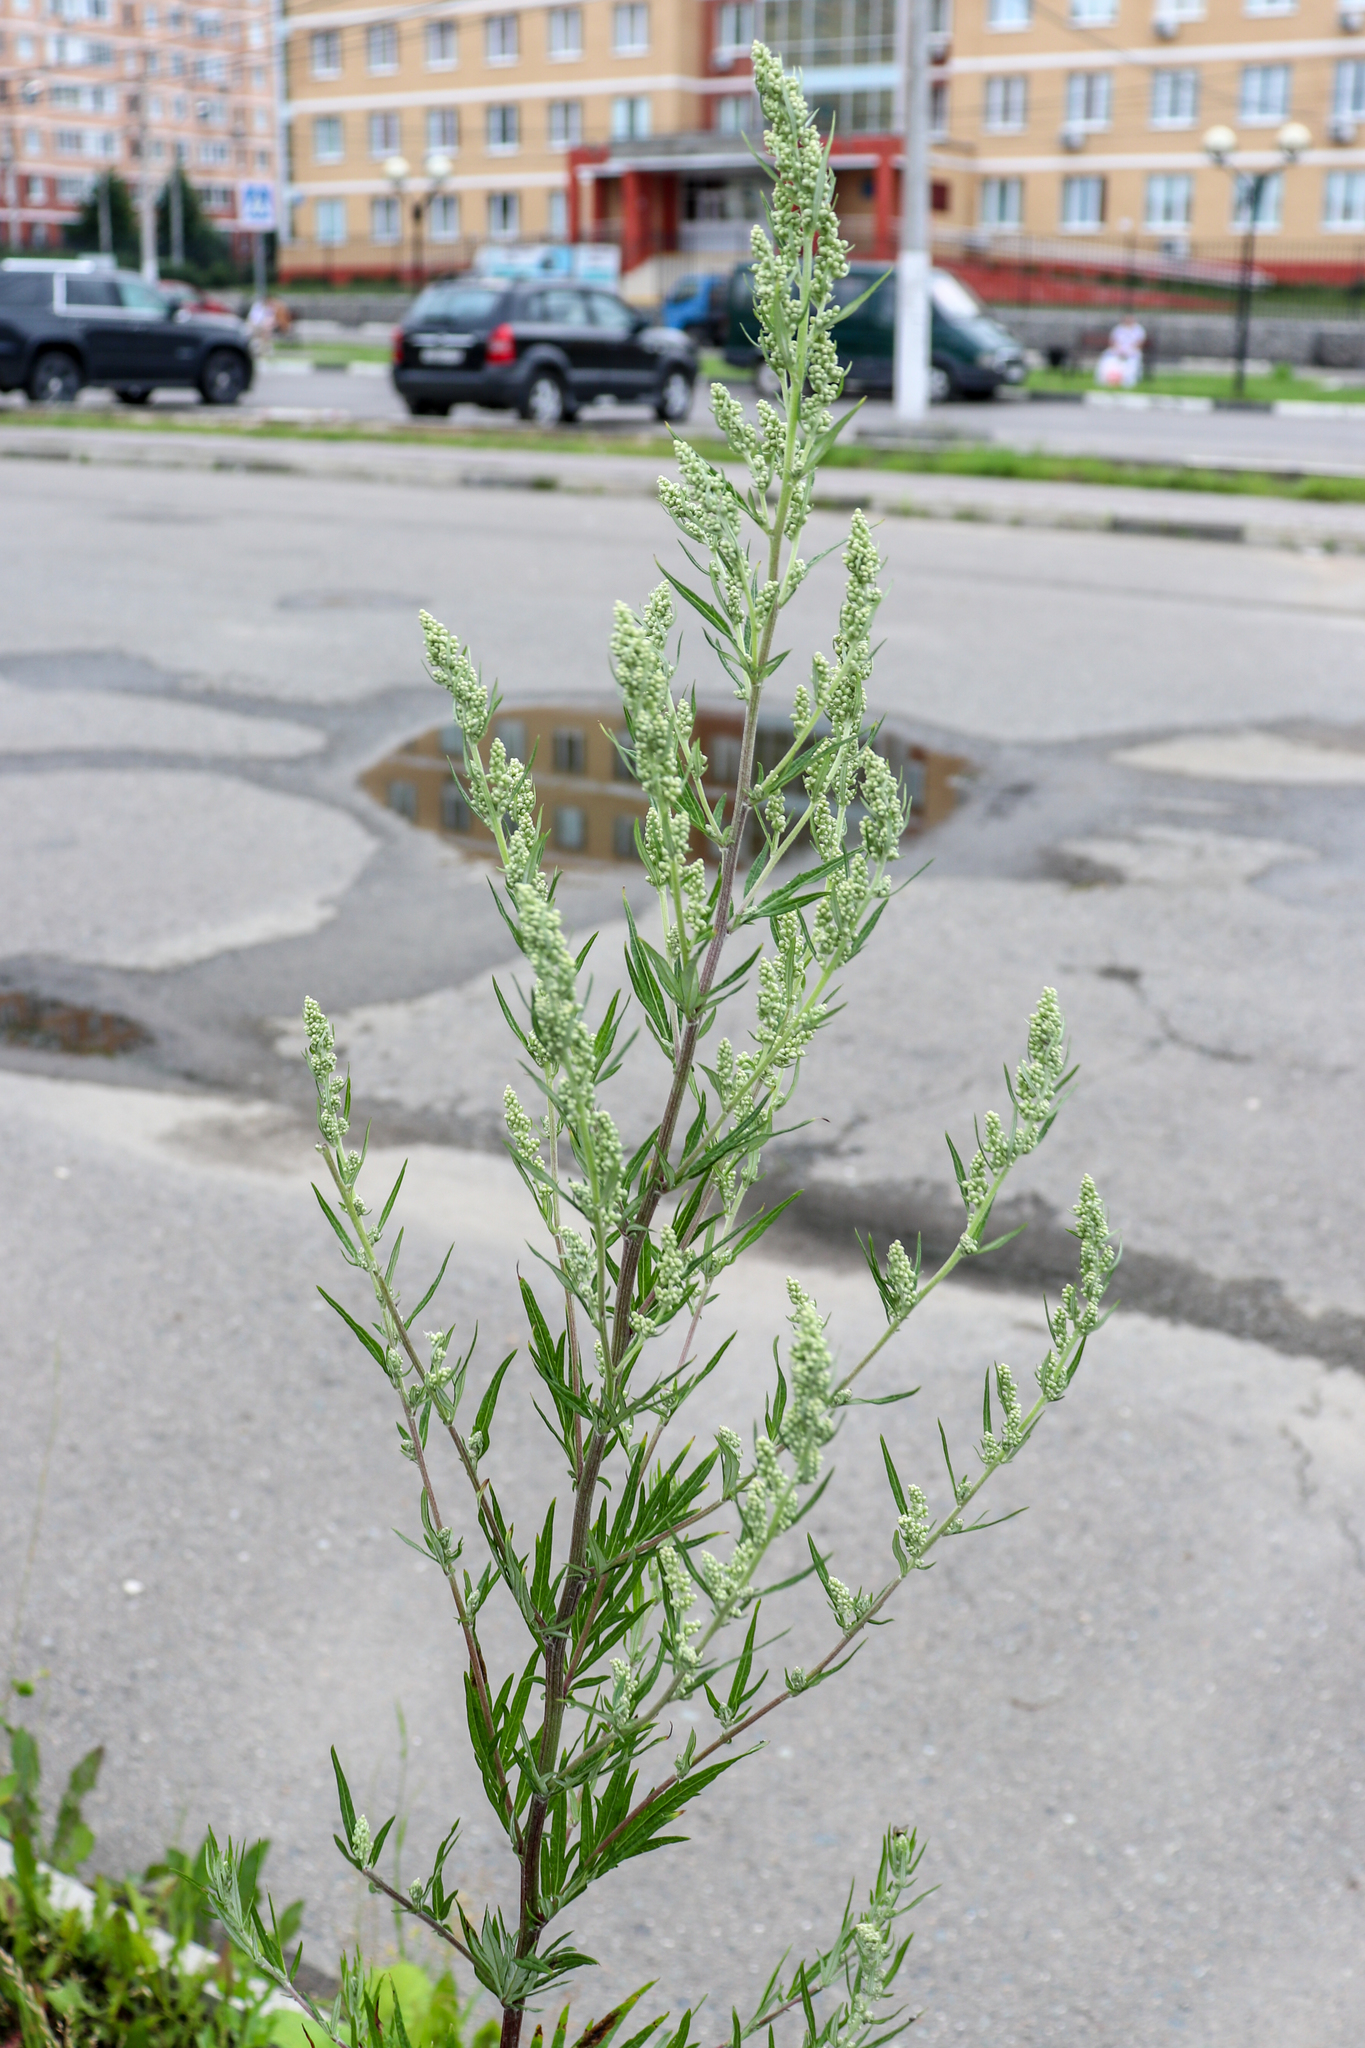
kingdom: Plantae
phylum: Tracheophyta
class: Magnoliopsida
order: Asterales
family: Asteraceae
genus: Artemisia
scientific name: Artemisia vulgaris
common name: Mugwort
